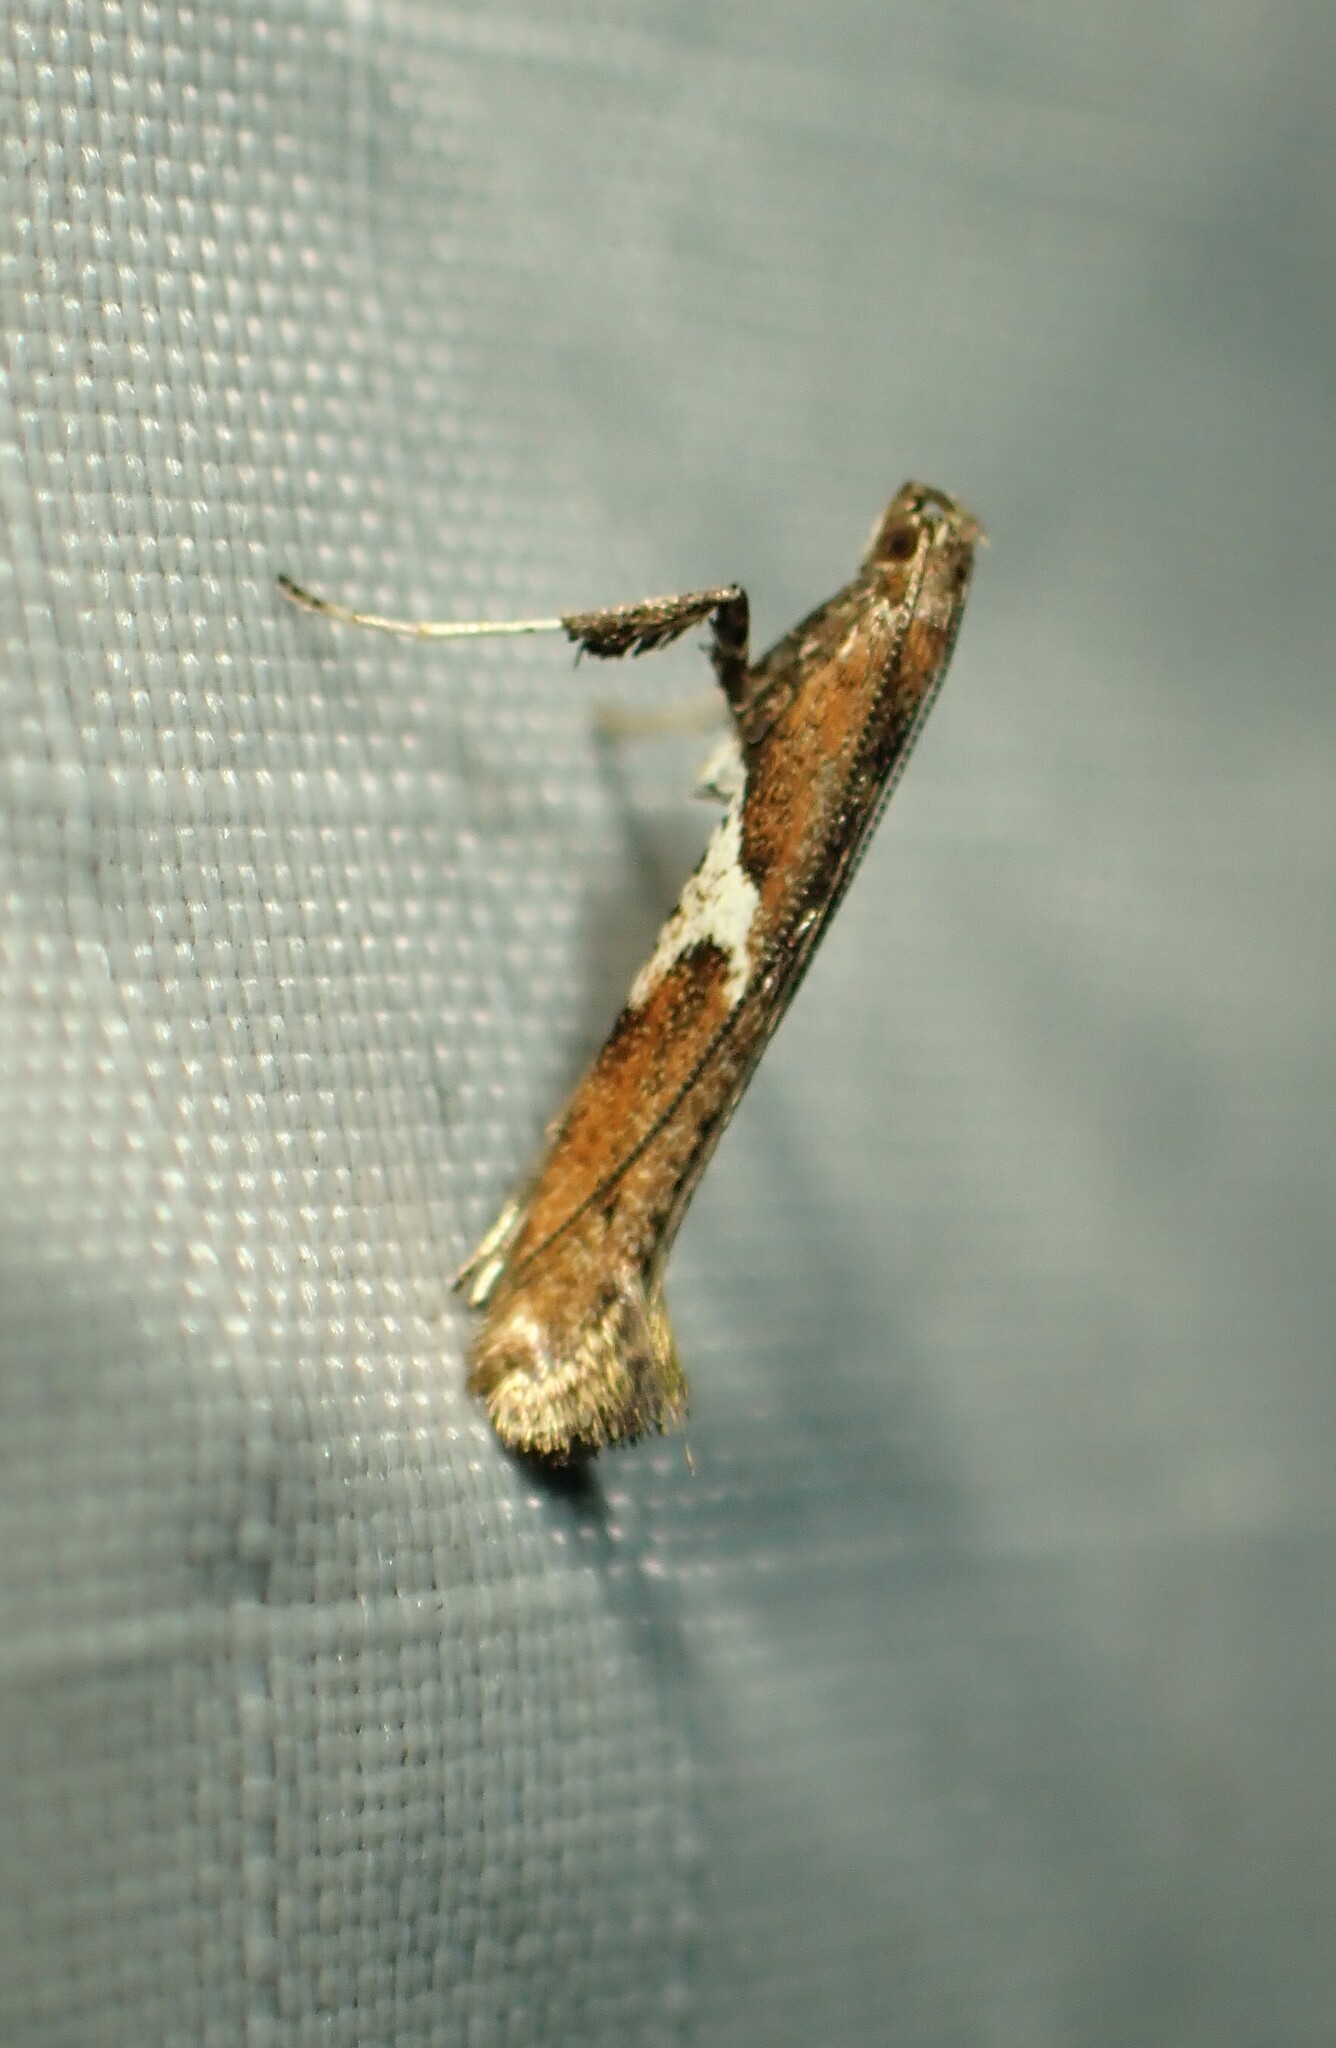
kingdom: Animalia
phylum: Arthropoda
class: Insecta
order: Lepidoptera
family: Gracillariidae
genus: Caloptilia
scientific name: Caloptilia stigmatella
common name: White-triangle slender
